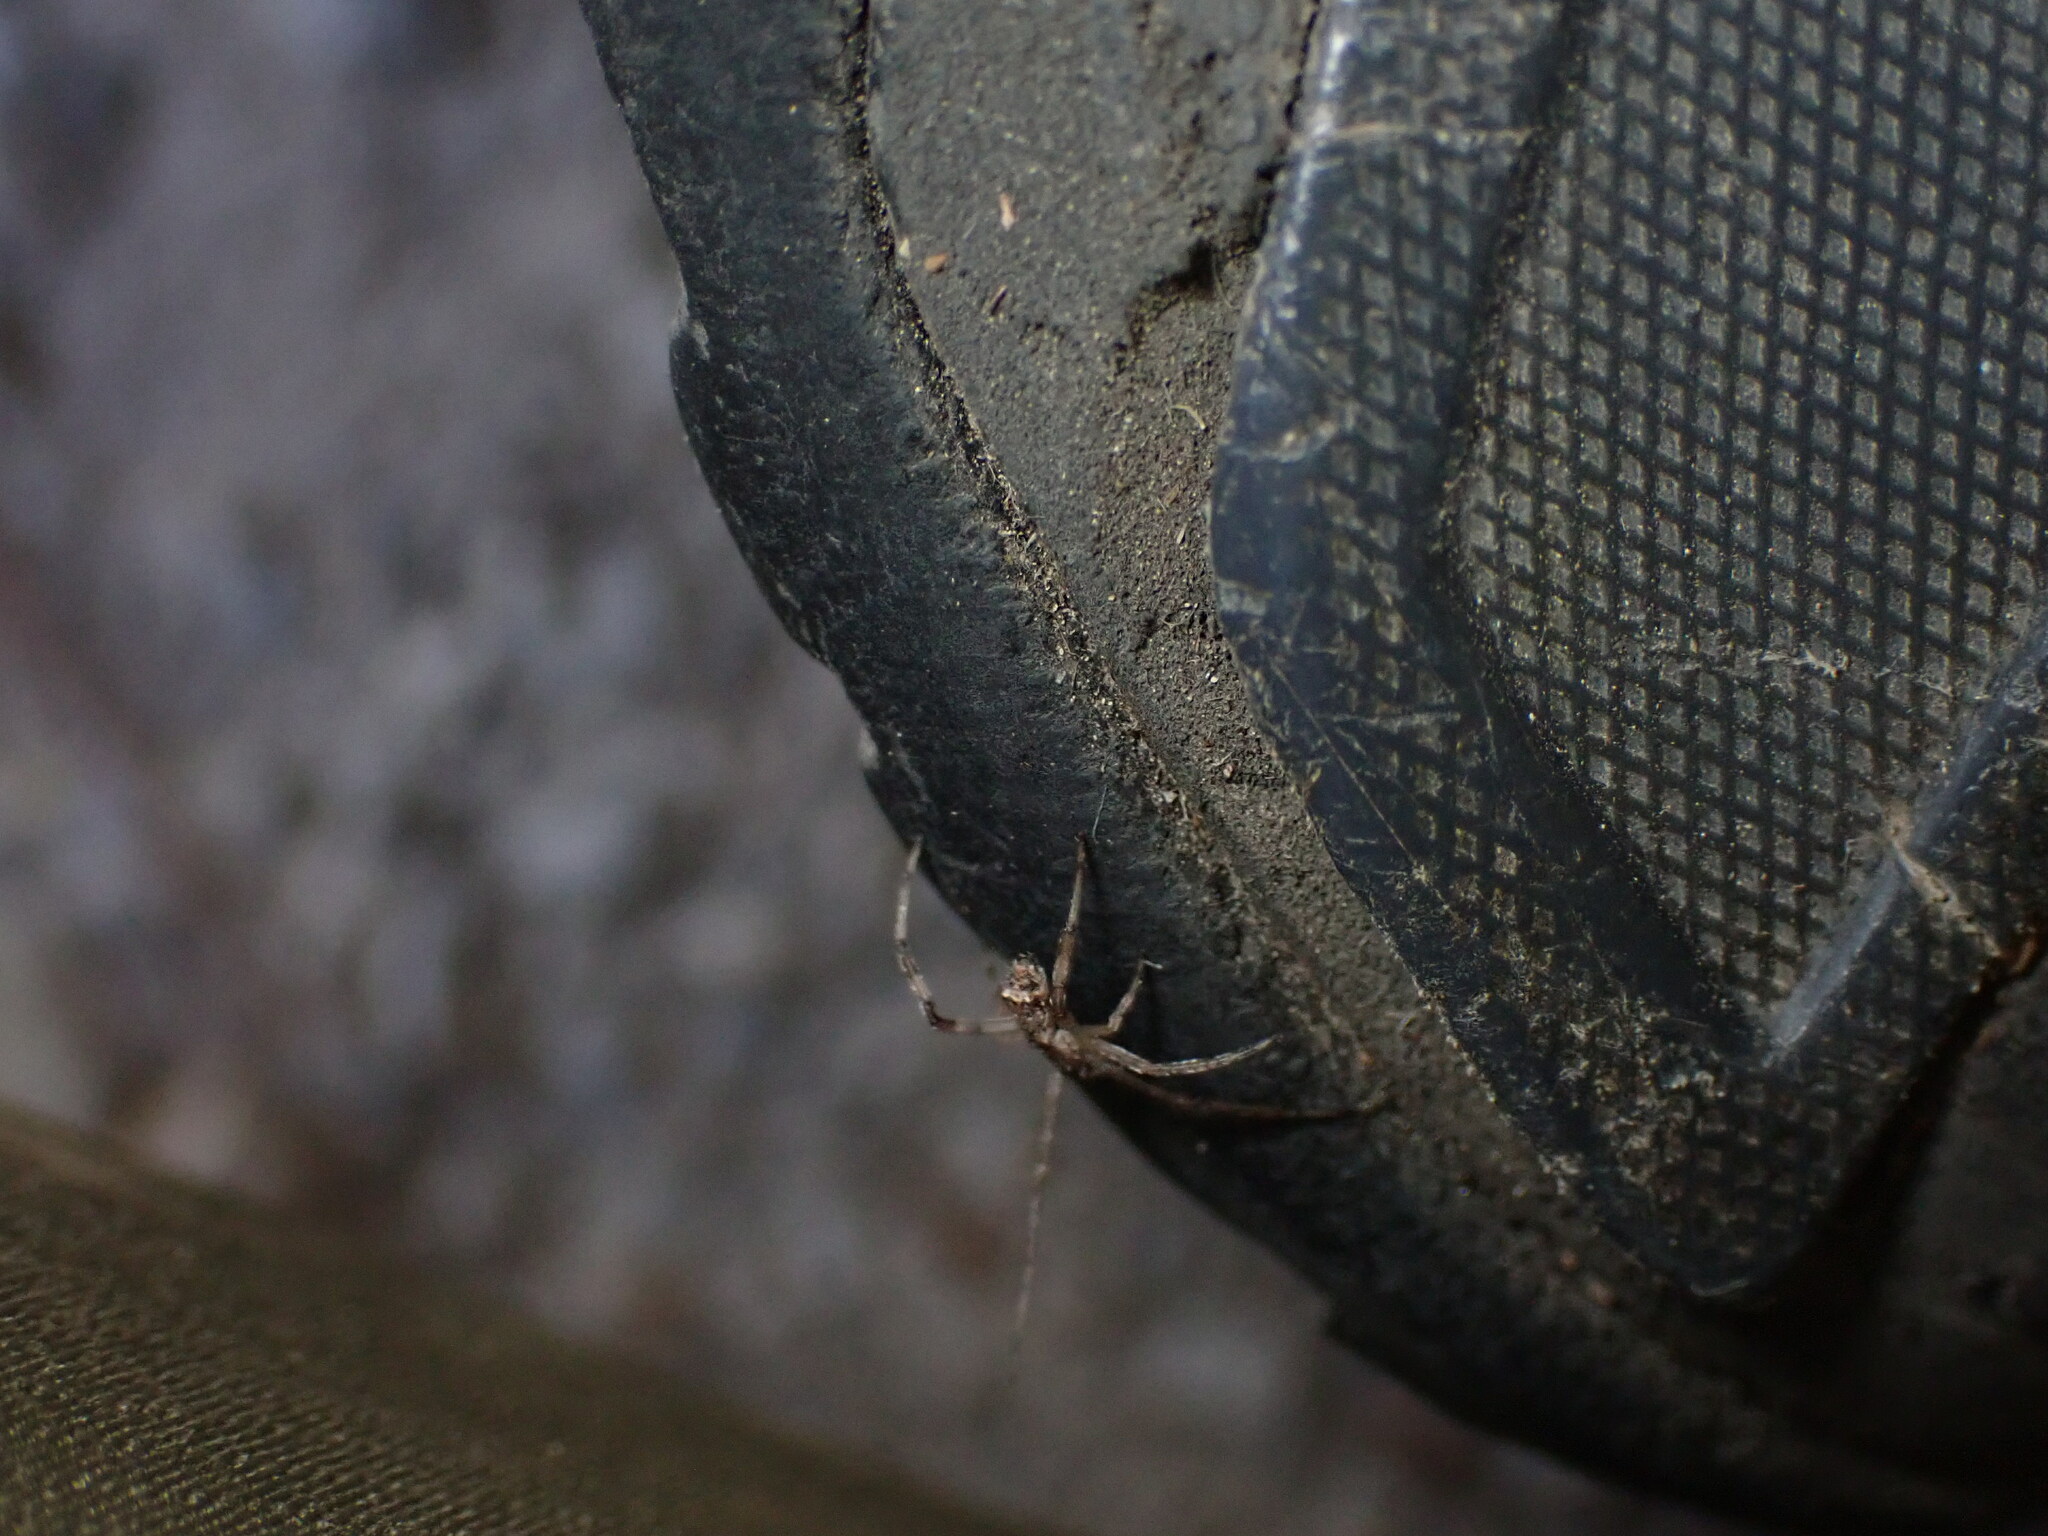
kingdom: Animalia
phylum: Arthropoda
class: Arachnida
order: Araneae
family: Theridiidae
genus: Episinus
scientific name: Episinus maculipes
